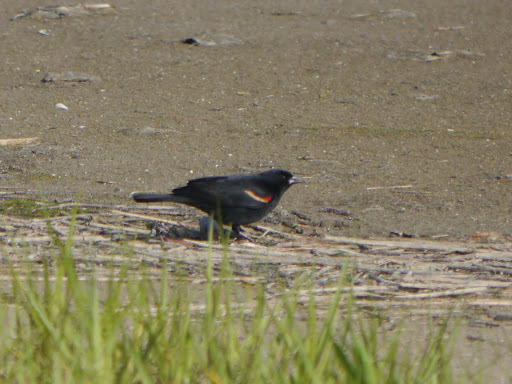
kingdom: Animalia
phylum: Chordata
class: Aves
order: Passeriformes
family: Icteridae
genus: Agelaius
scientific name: Agelaius phoeniceus
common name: Red-winged blackbird
